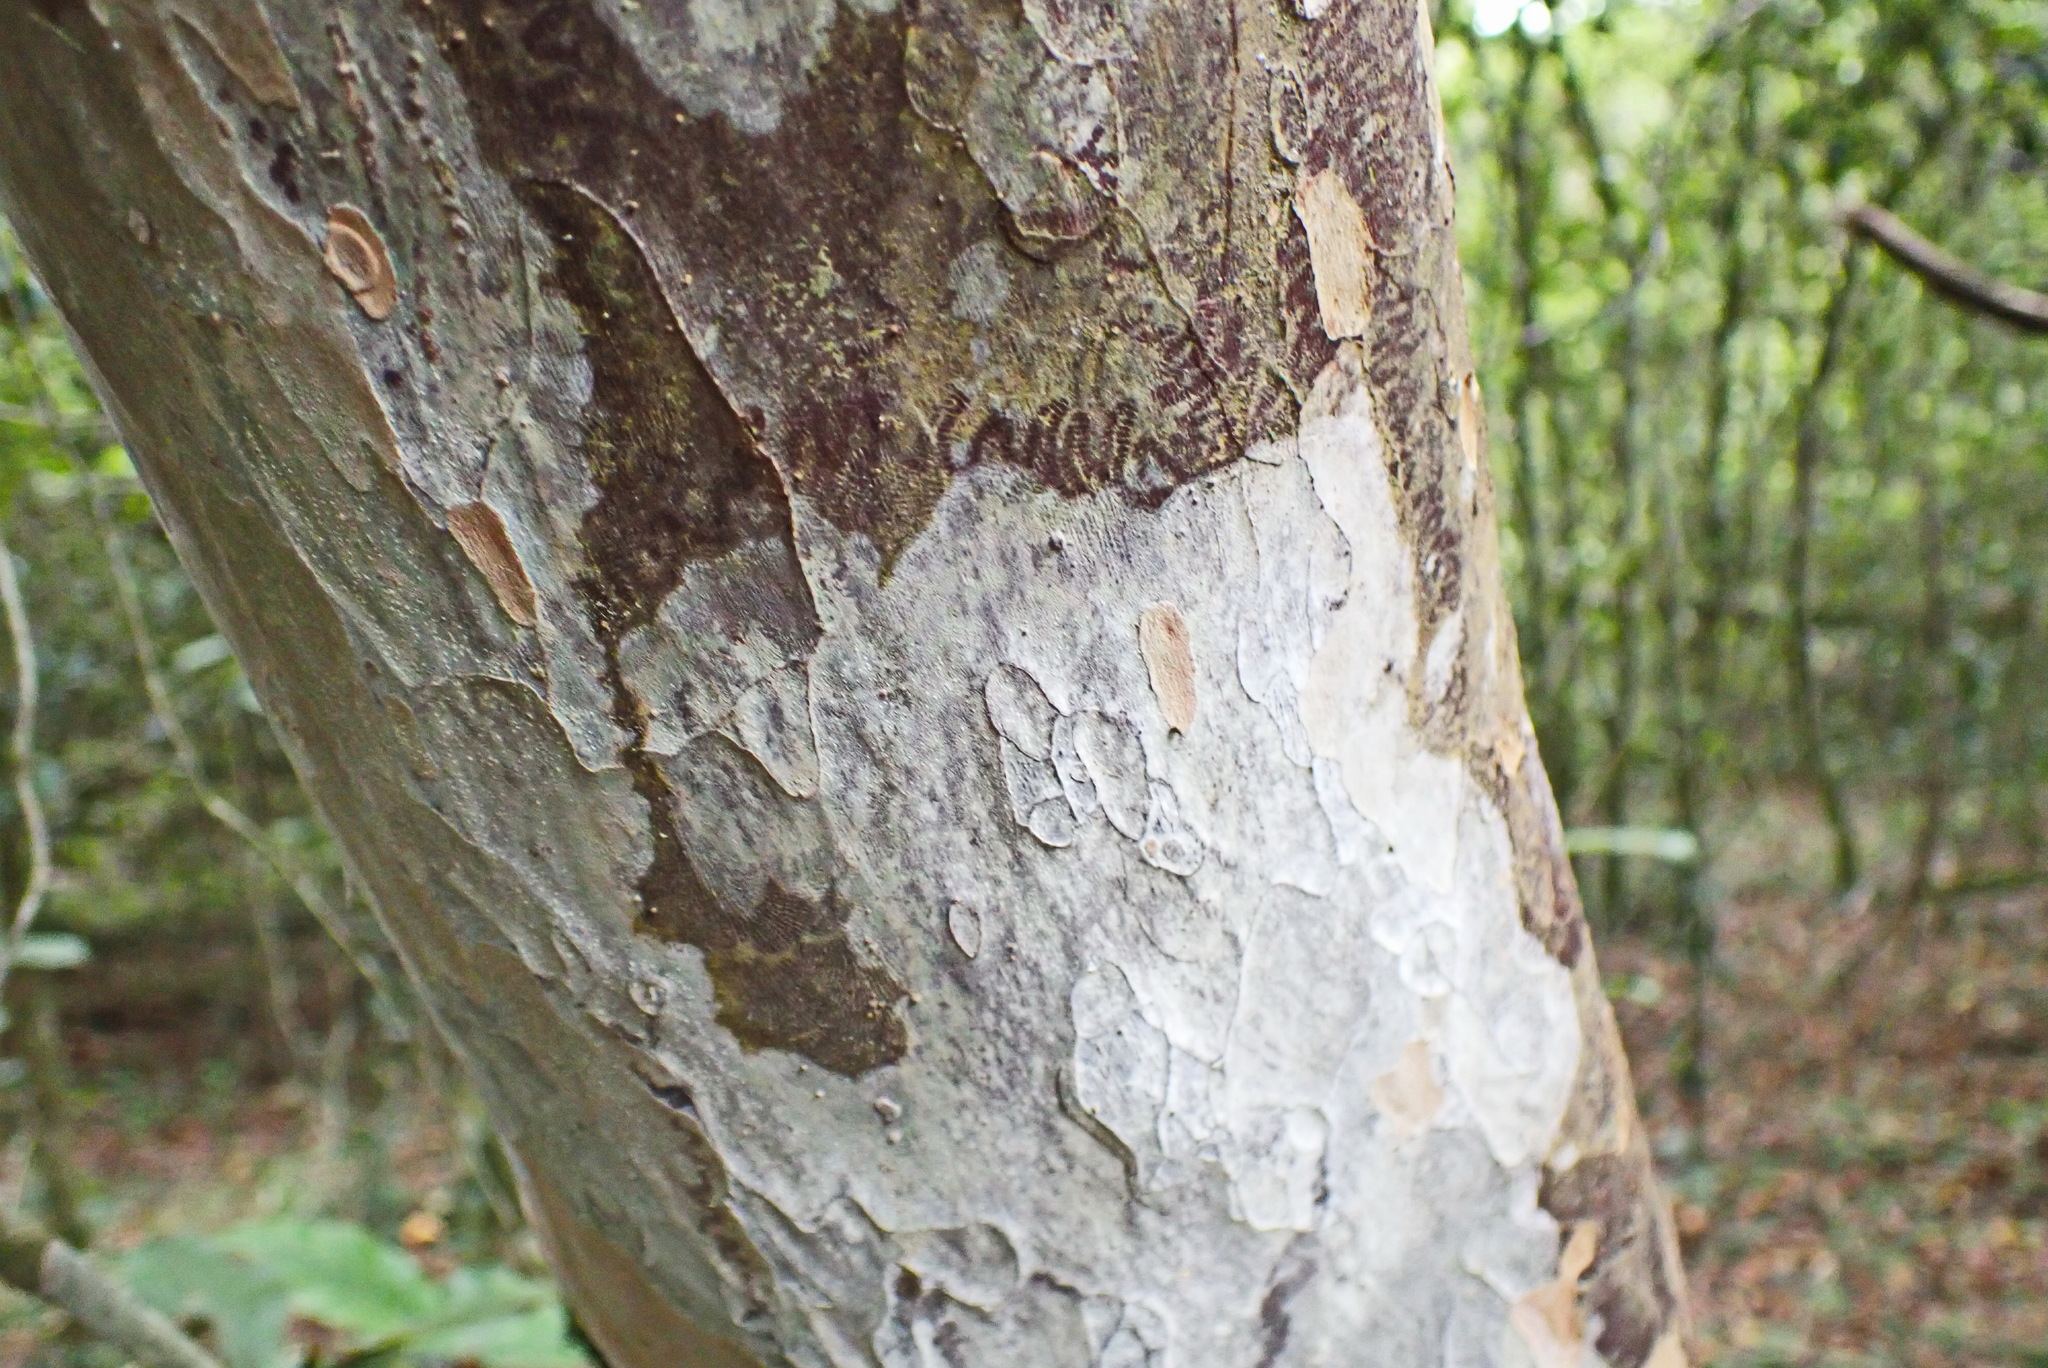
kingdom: Plantae
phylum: Tracheophyta
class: Magnoliopsida
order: Malpighiales
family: Ochnaceae
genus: Ochna
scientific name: Ochna arborea
